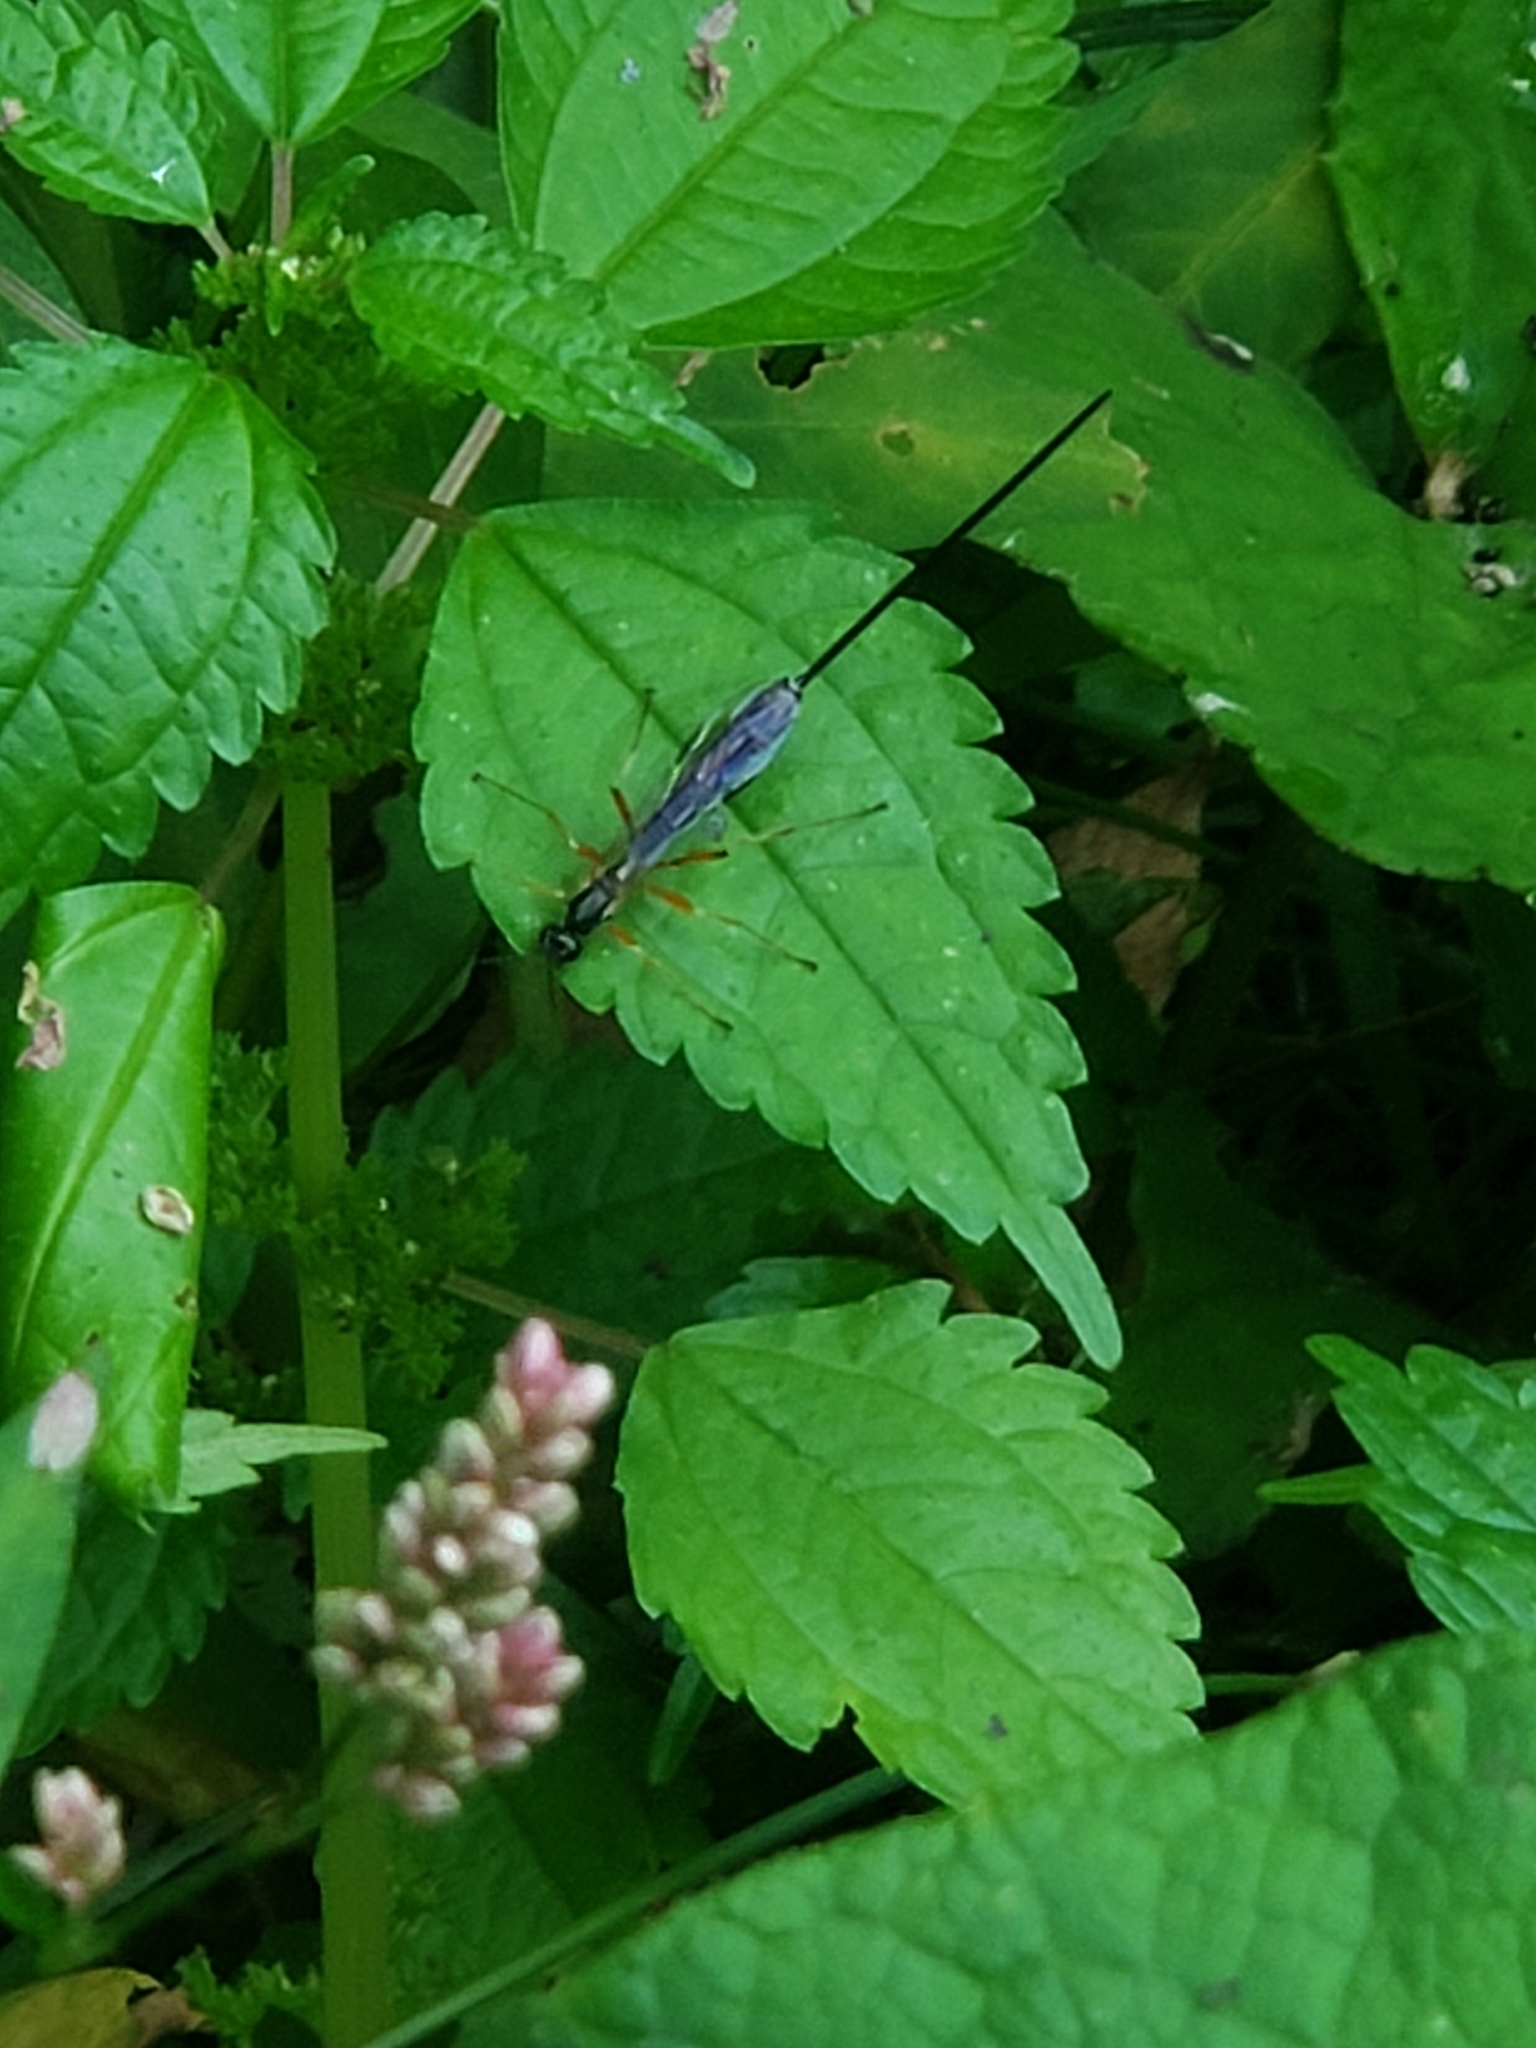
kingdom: Animalia
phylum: Arthropoda
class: Insecta
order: Hymenoptera
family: Ichneumonidae
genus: Rhyssella
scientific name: Rhyssella nitida
